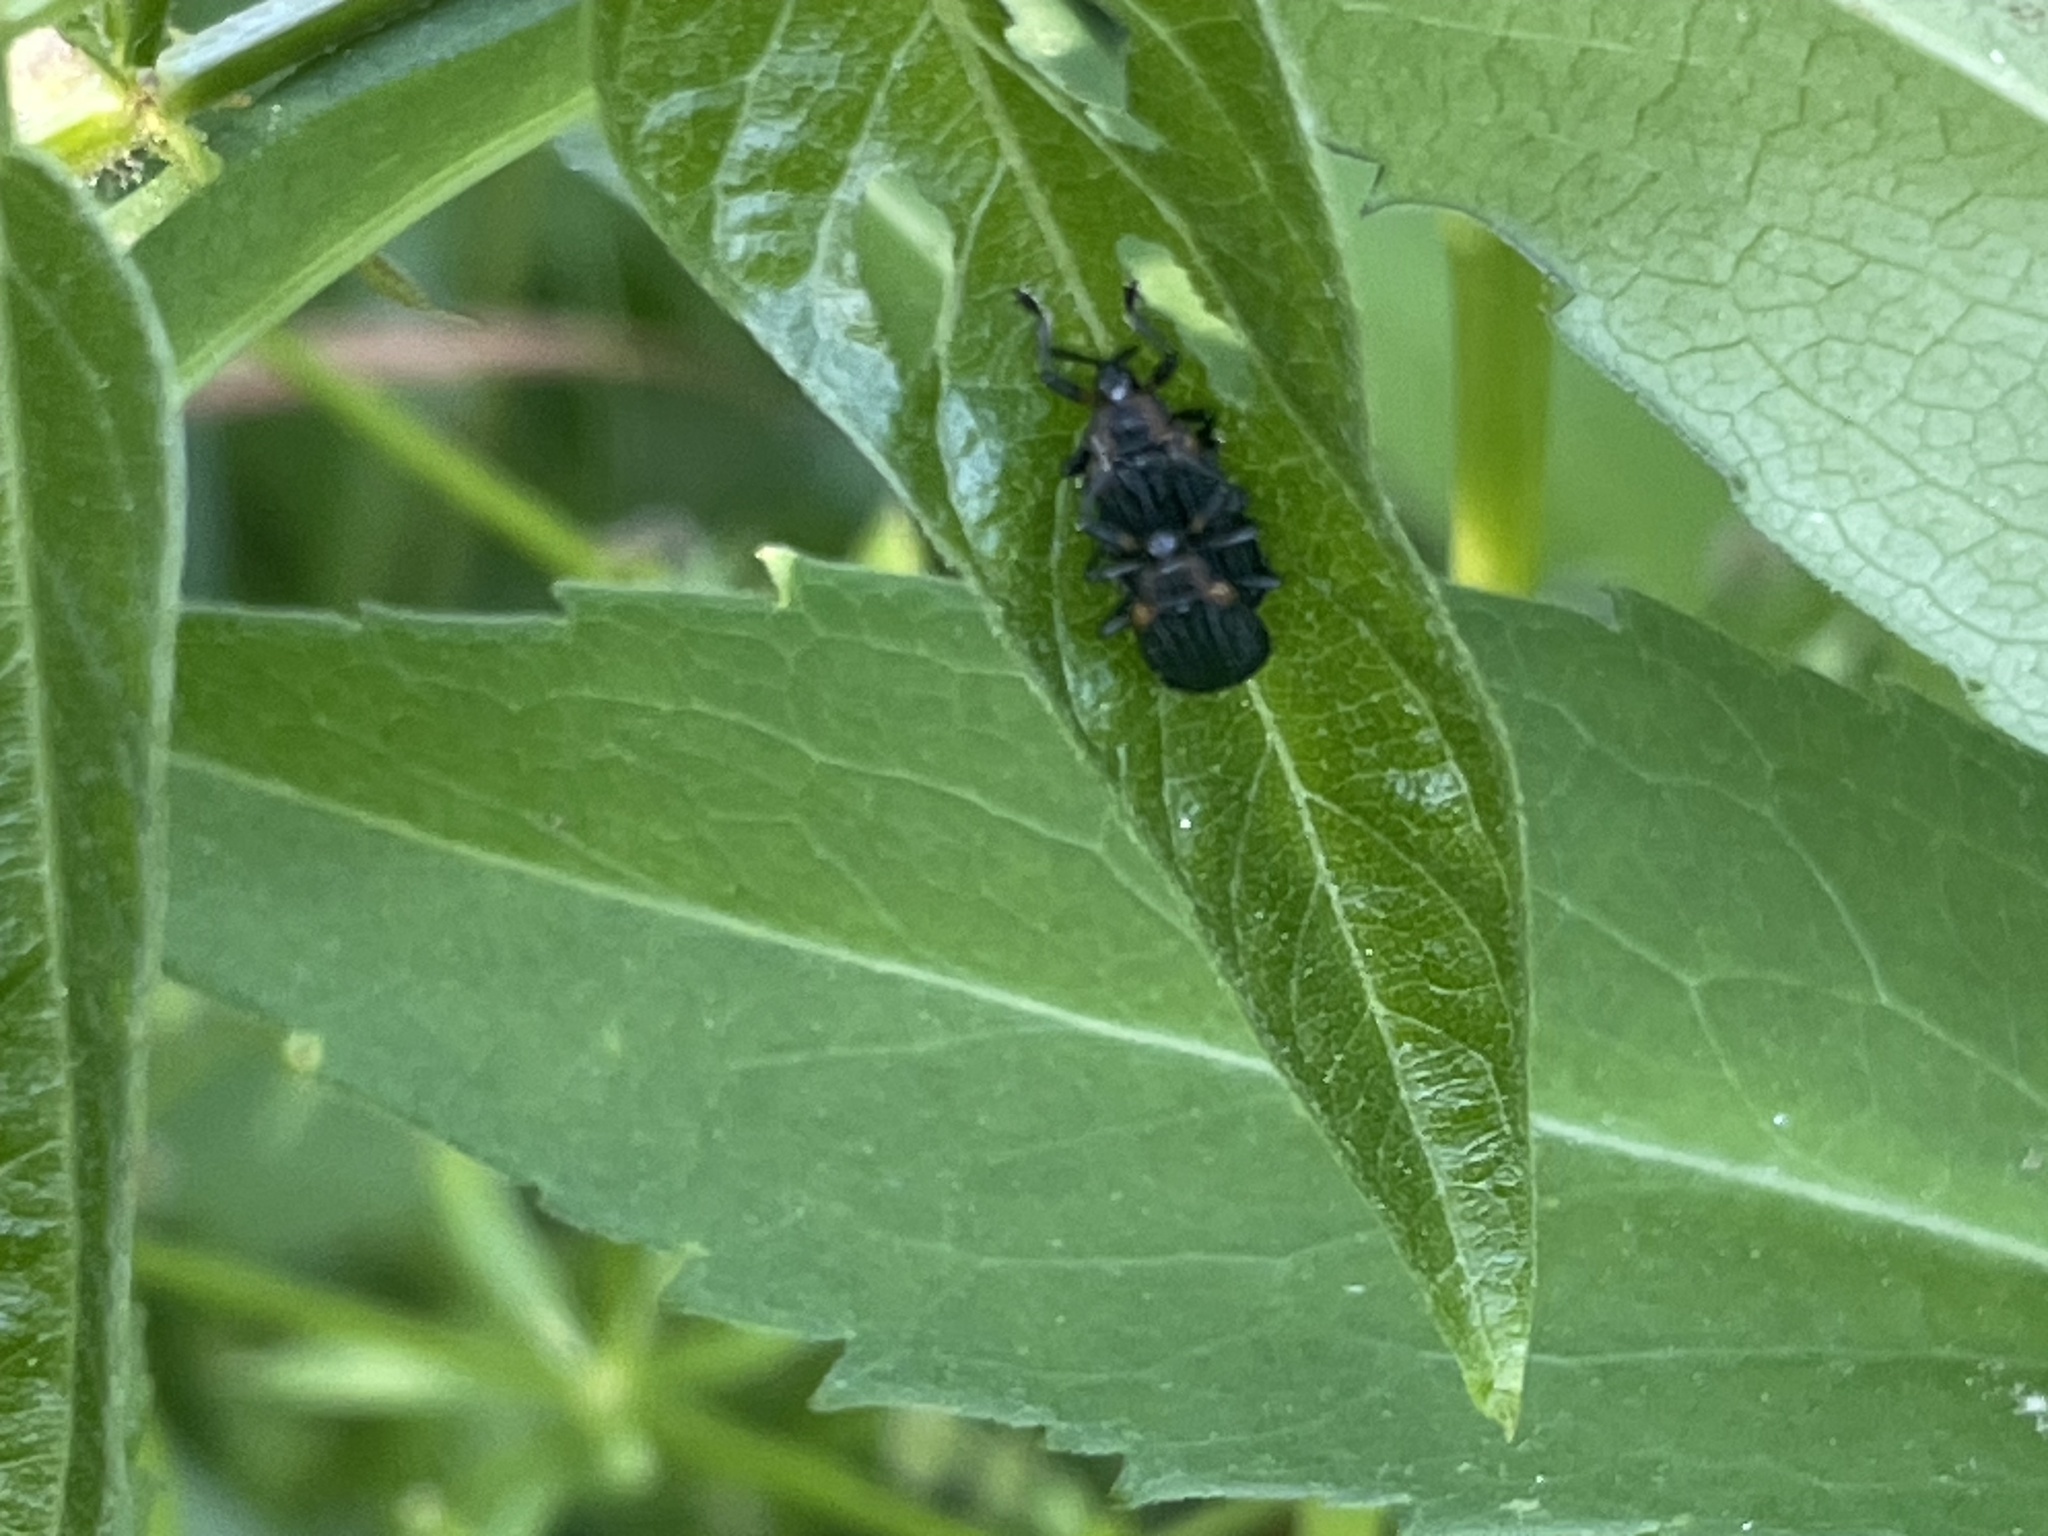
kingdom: Animalia
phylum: Arthropoda
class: Insecta
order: Coleoptera
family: Chrysomelidae
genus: Odontota
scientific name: Odontota scapularis
